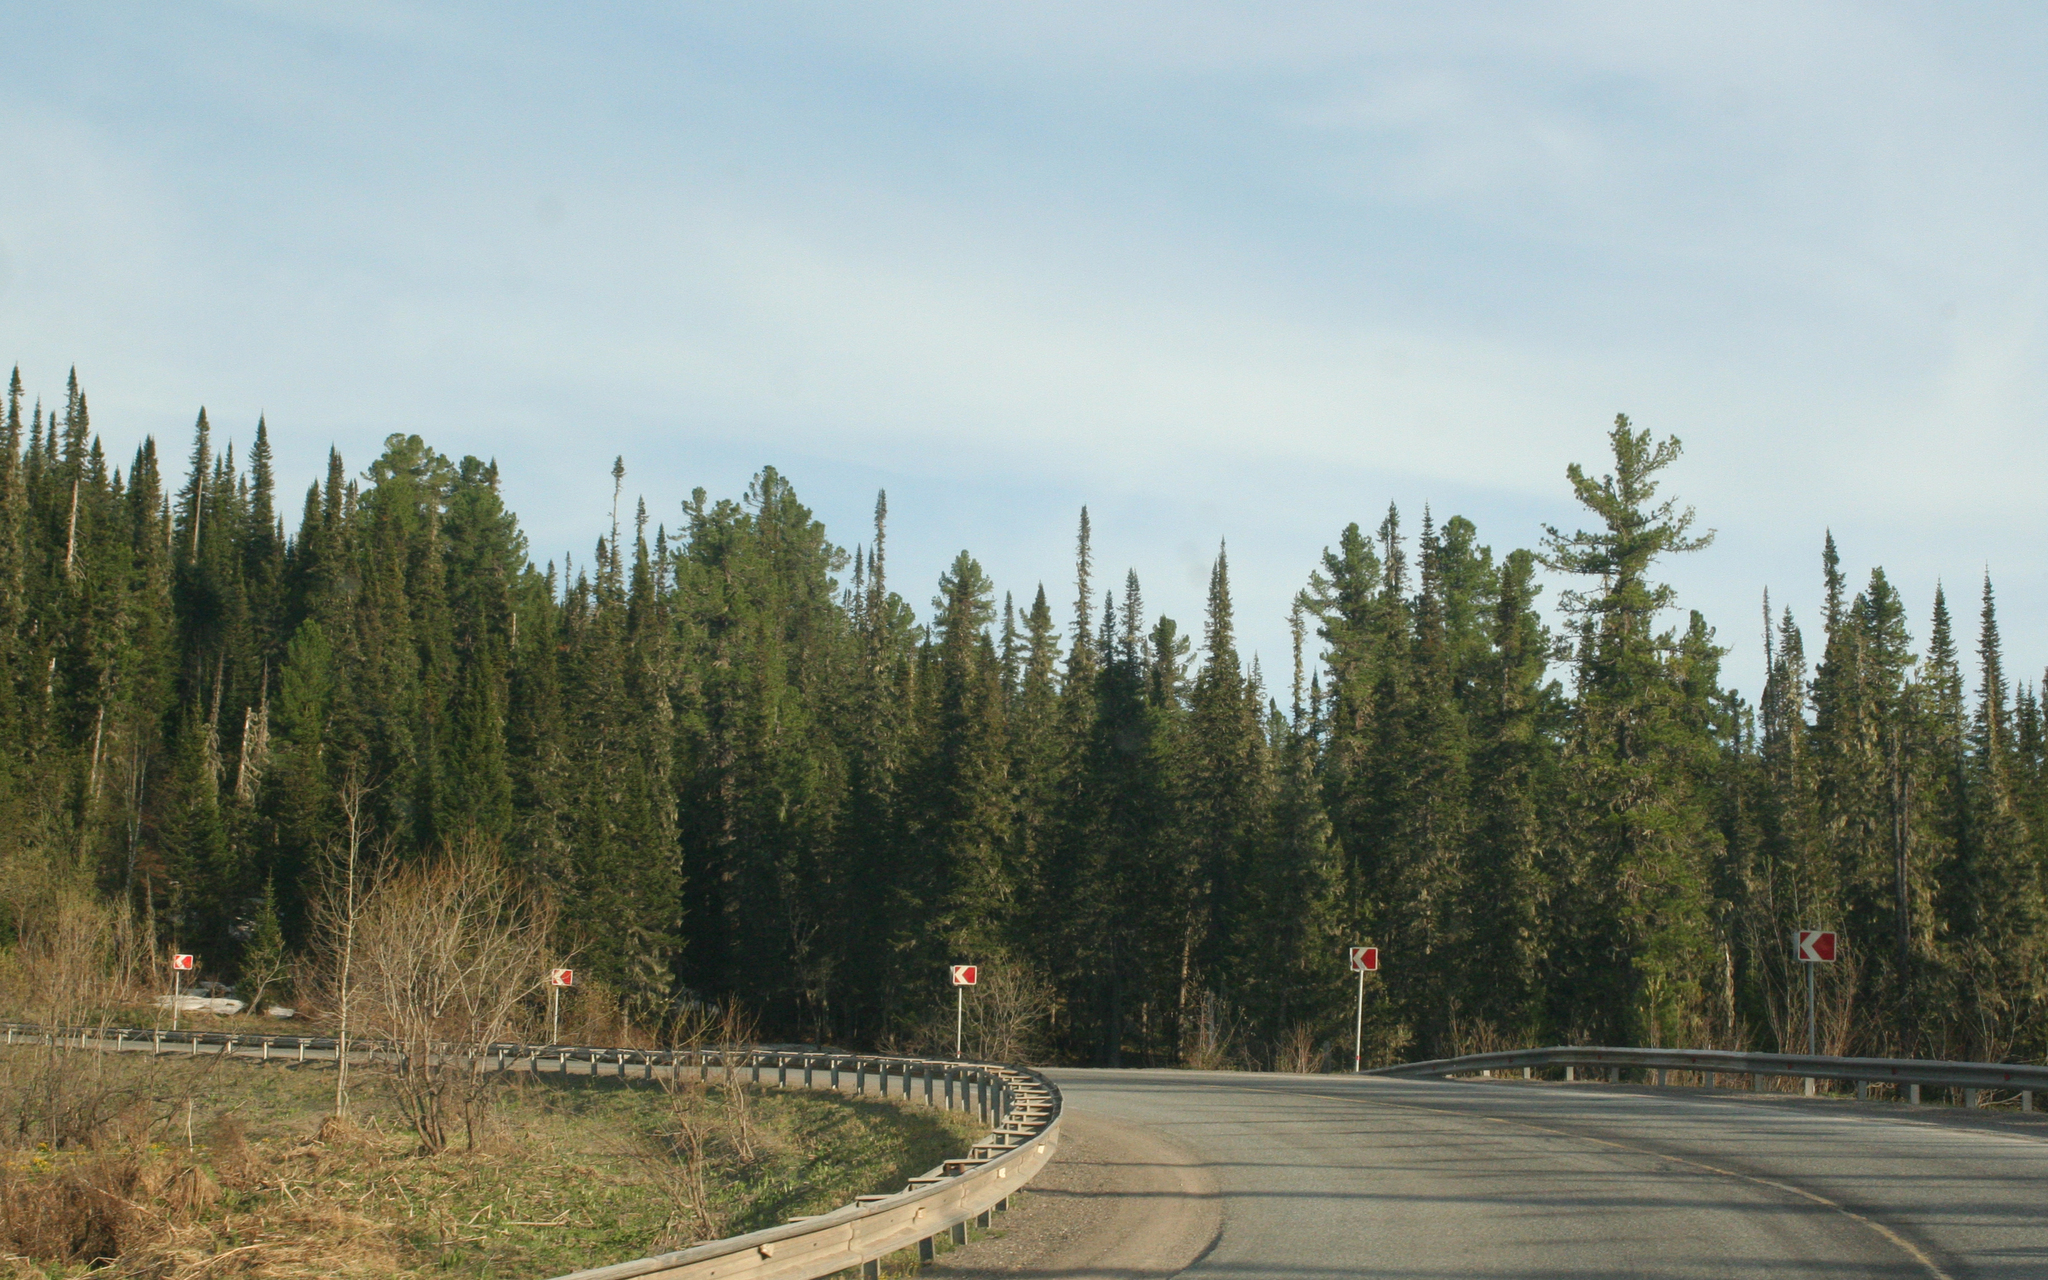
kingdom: Plantae
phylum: Tracheophyta
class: Pinopsida
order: Pinales
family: Pinaceae
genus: Pinus
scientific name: Pinus sibirica
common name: Siberian pine
